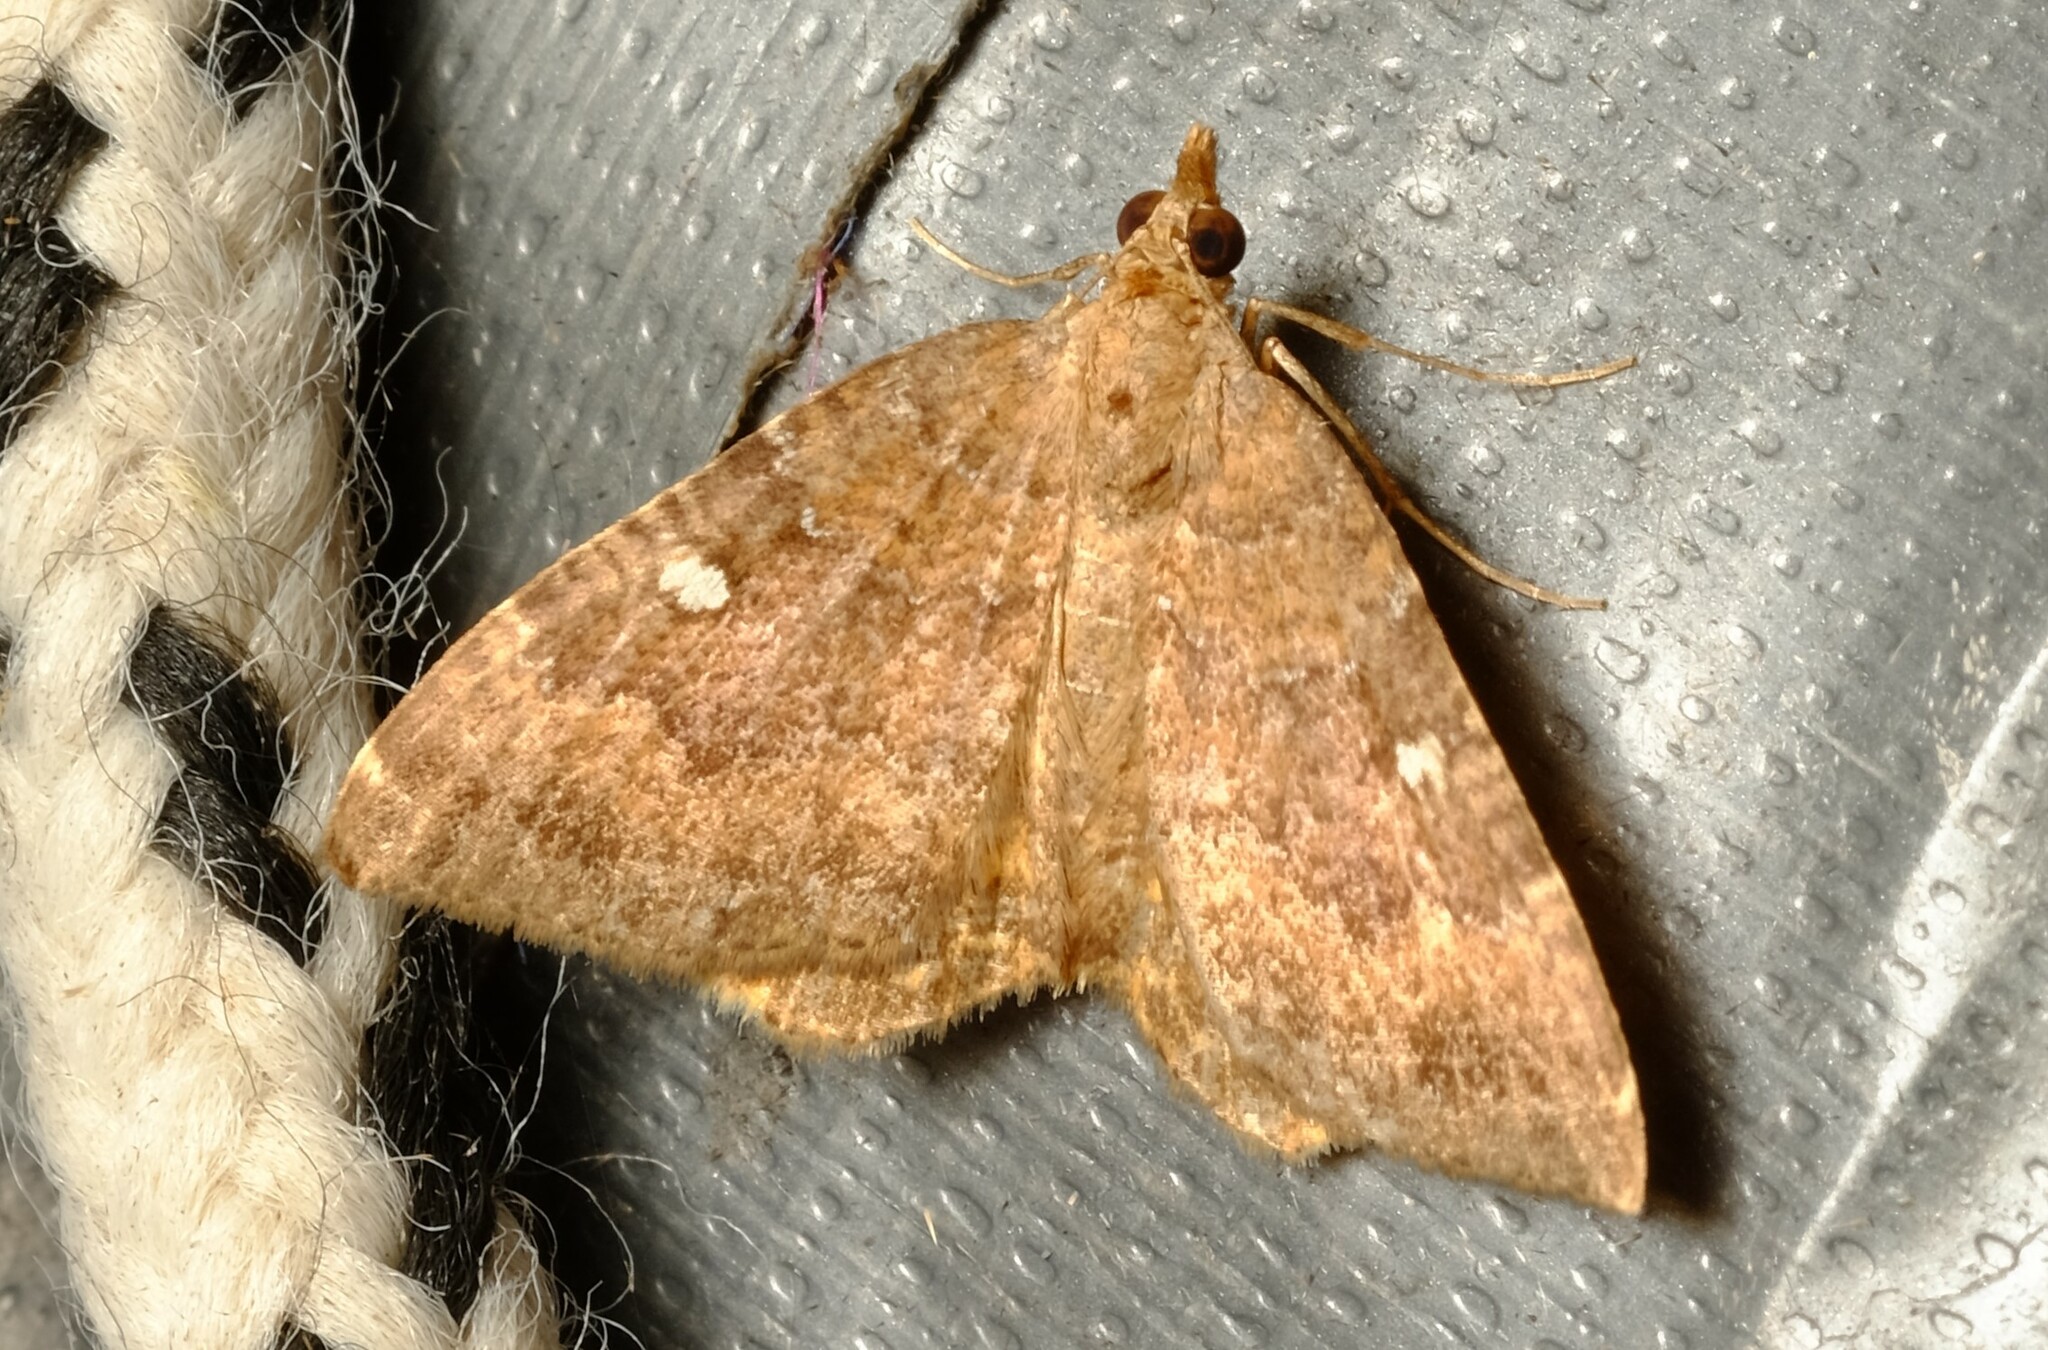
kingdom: Animalia
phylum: Arthropoda
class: Insecta
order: Lepidoptera
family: Geometridae
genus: Chrysolarentia
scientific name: Chrysolarentia heteroleuca
